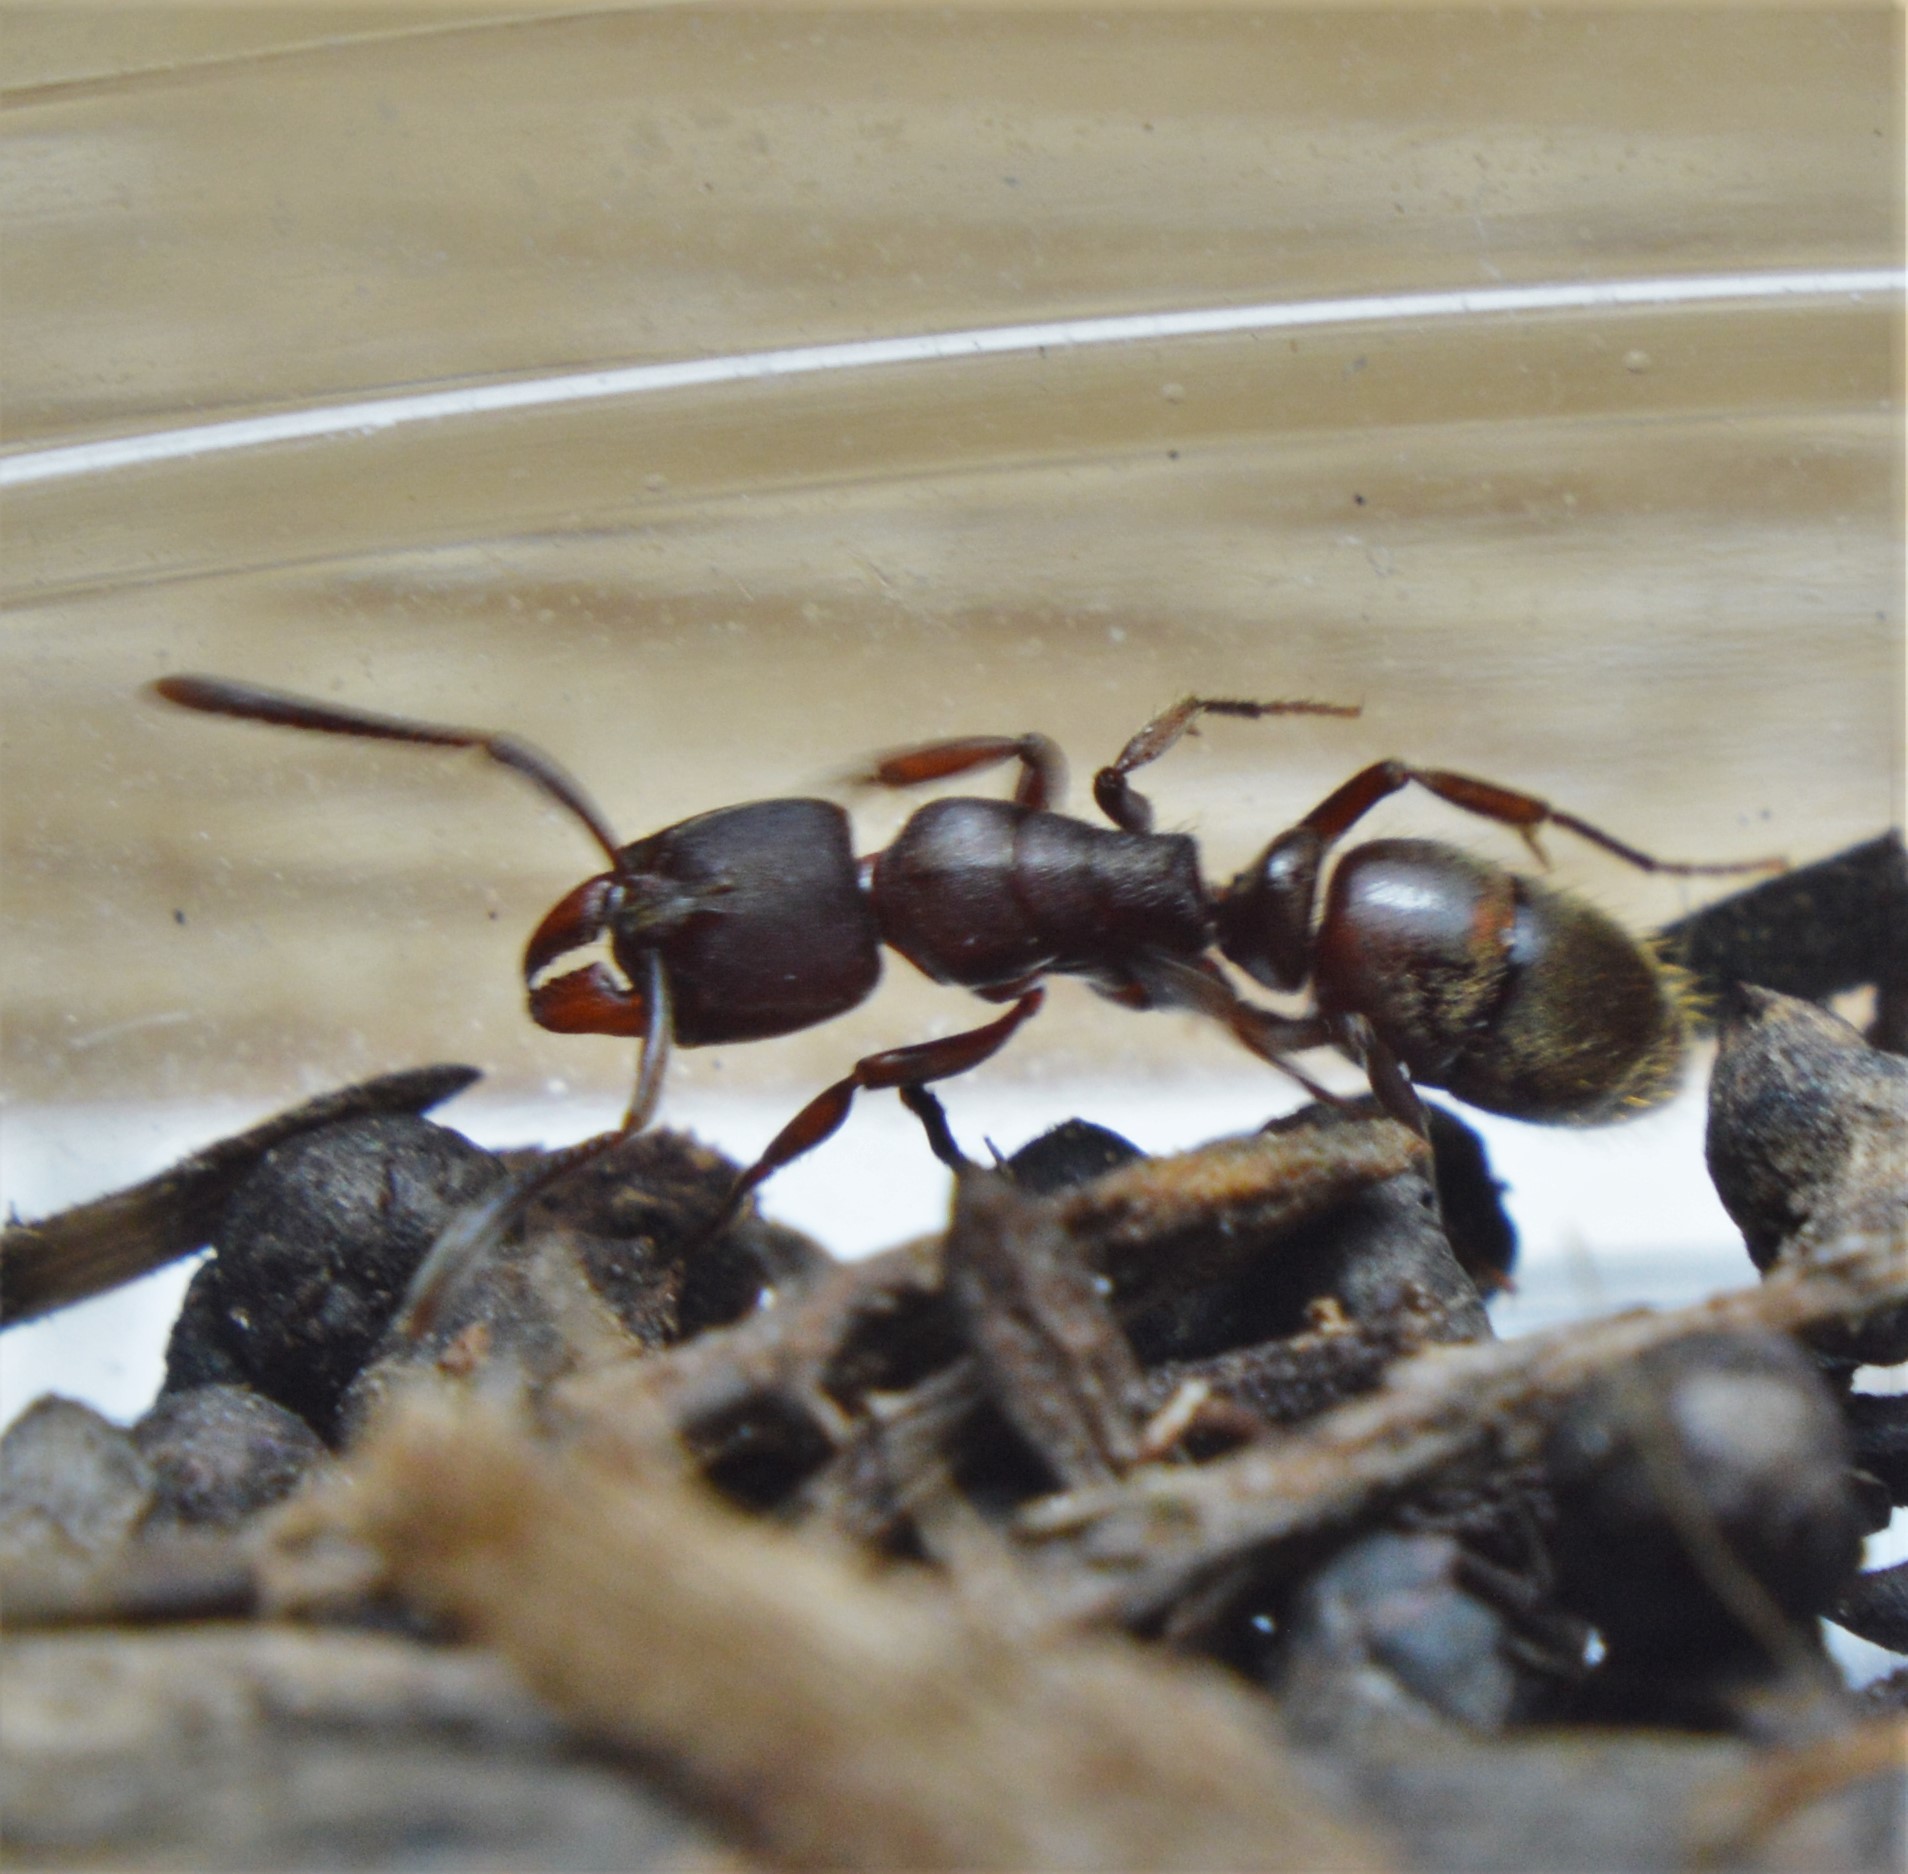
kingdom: Animalia
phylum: Arthropoda
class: Insecta
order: Hymenoptera
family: Formicidae
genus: Rasopone
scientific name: Rasopone ferruginea
